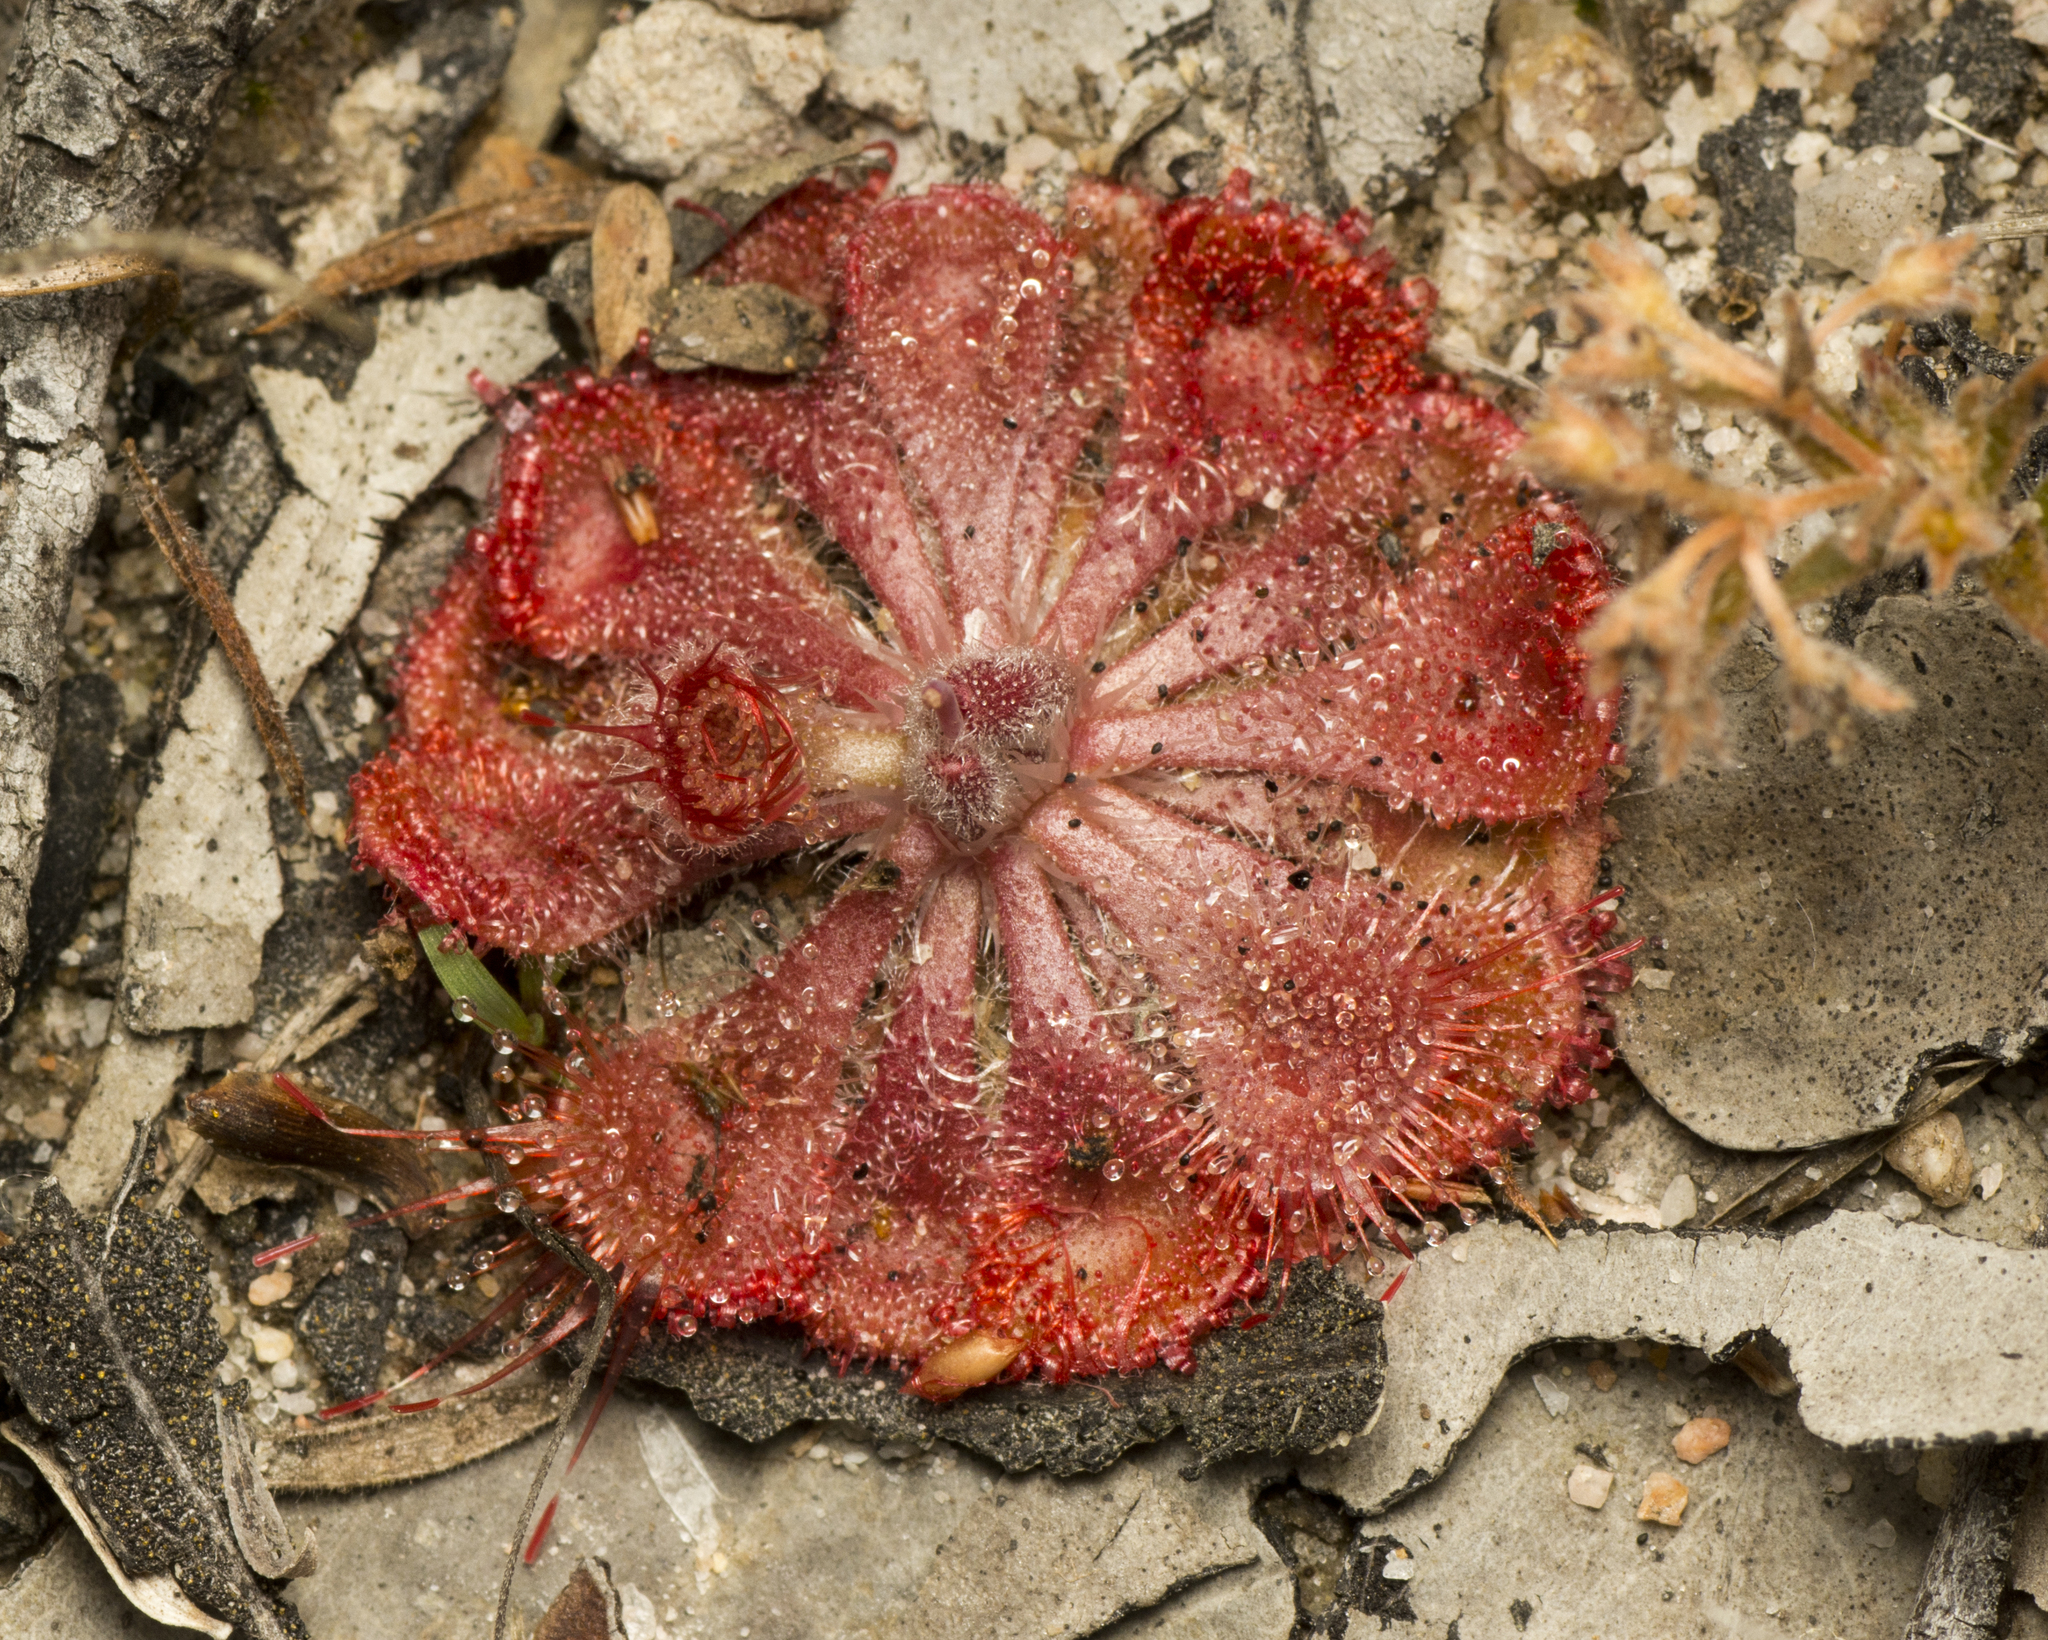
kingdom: Plantae
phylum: Tracheophyta
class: Magnoliopsida
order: Caryophyllales
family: Droseraceae
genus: Drosera
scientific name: Drosera spatulata
